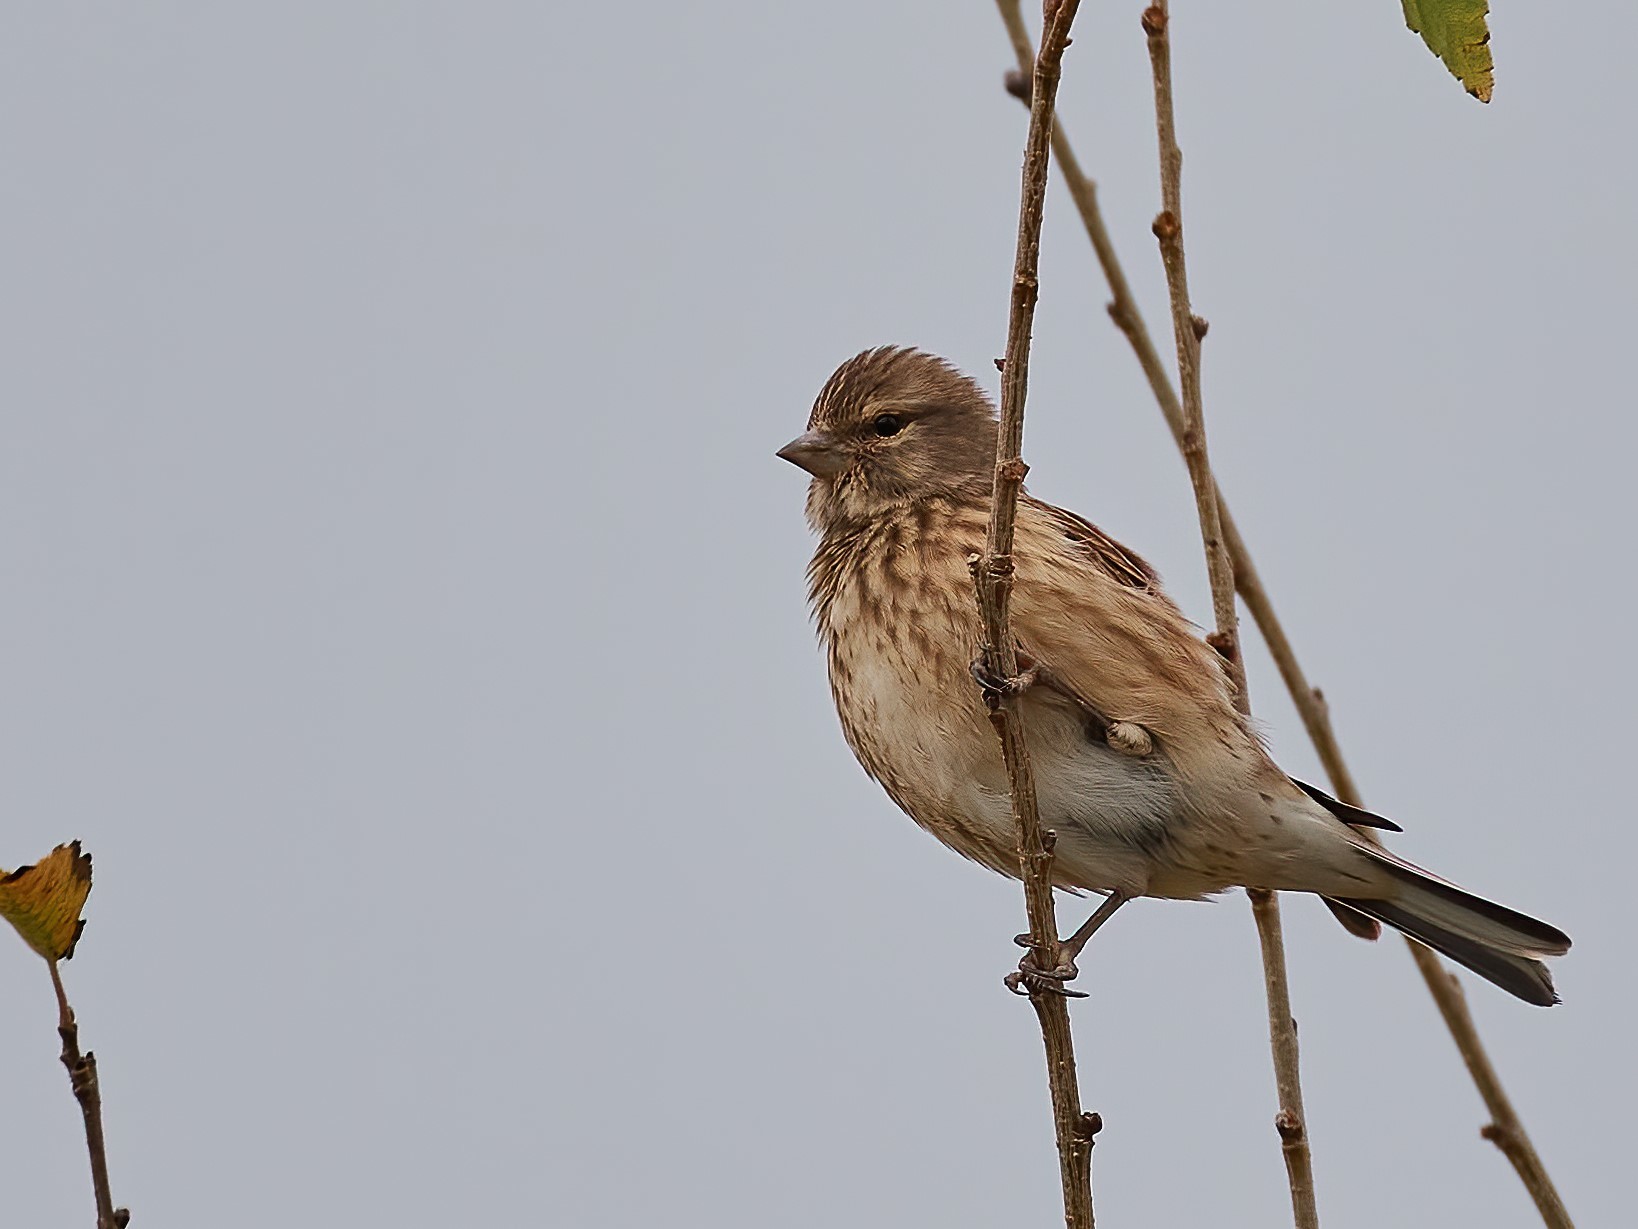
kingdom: Animalia
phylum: Chordata
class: Aves
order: Passeriformes
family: Fringillidae
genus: Linaria
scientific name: Linaria cannabina
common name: Common linnet
